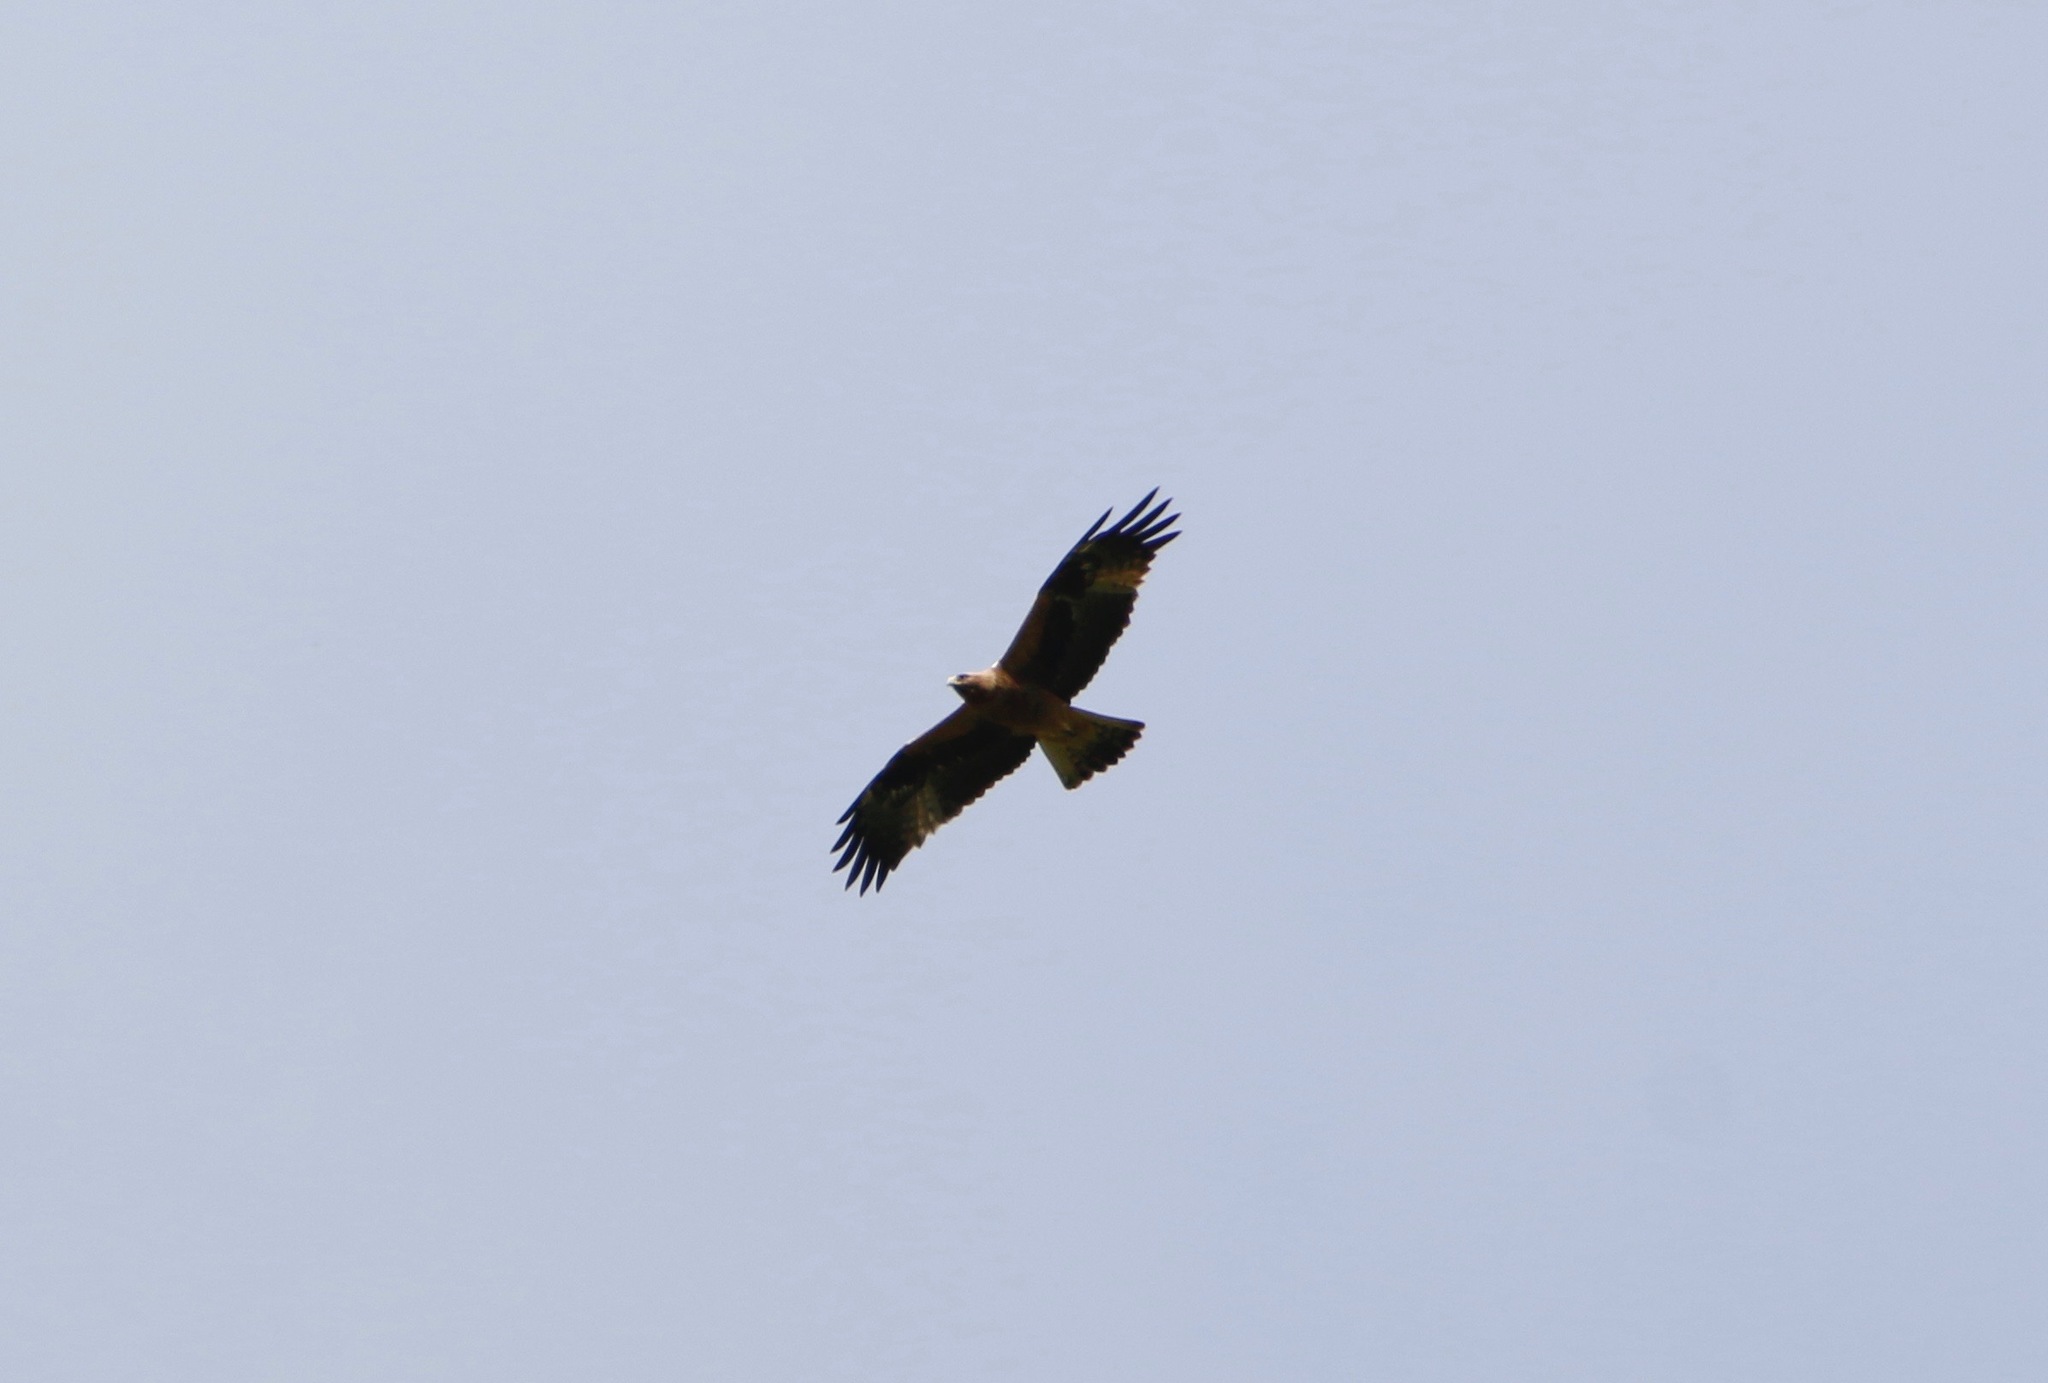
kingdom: Animalia
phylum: Chordata
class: Aves
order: Accipitriformes
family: Accipitridae
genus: Hieraaetus
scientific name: Hieraaetus pennatus
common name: Booted eagle
